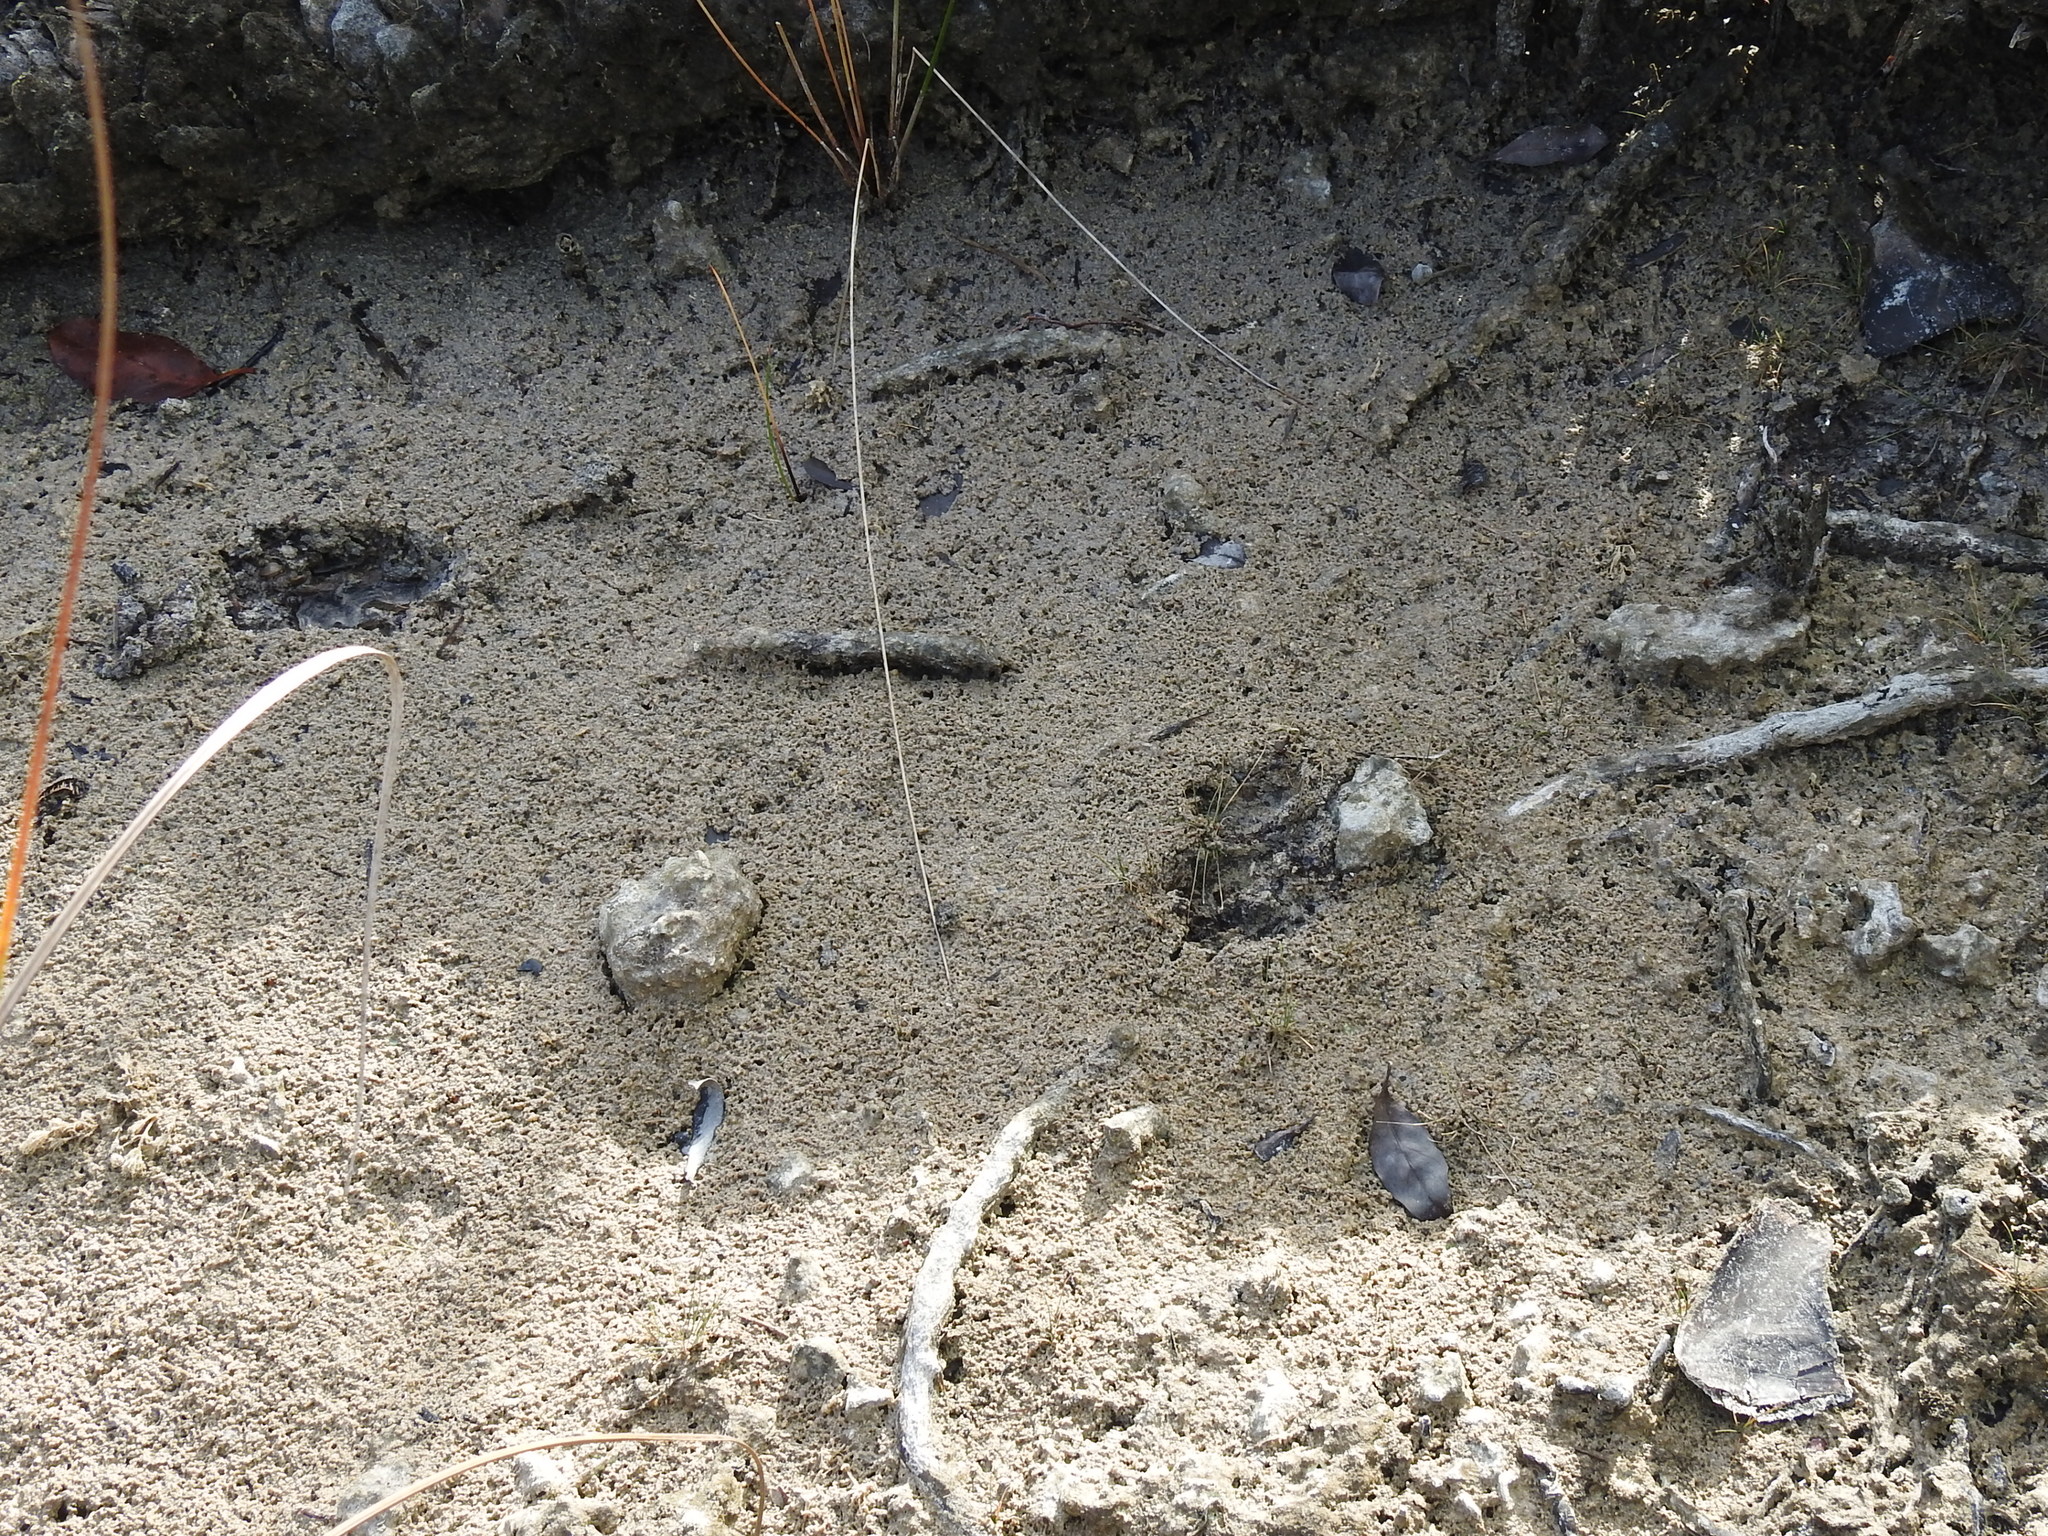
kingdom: Animalia
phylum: Chordata
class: Mammalia
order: Artiodactyla
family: Cervidae
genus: Odocoileus
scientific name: Odocoileus virginianus
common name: White-tailed deer
